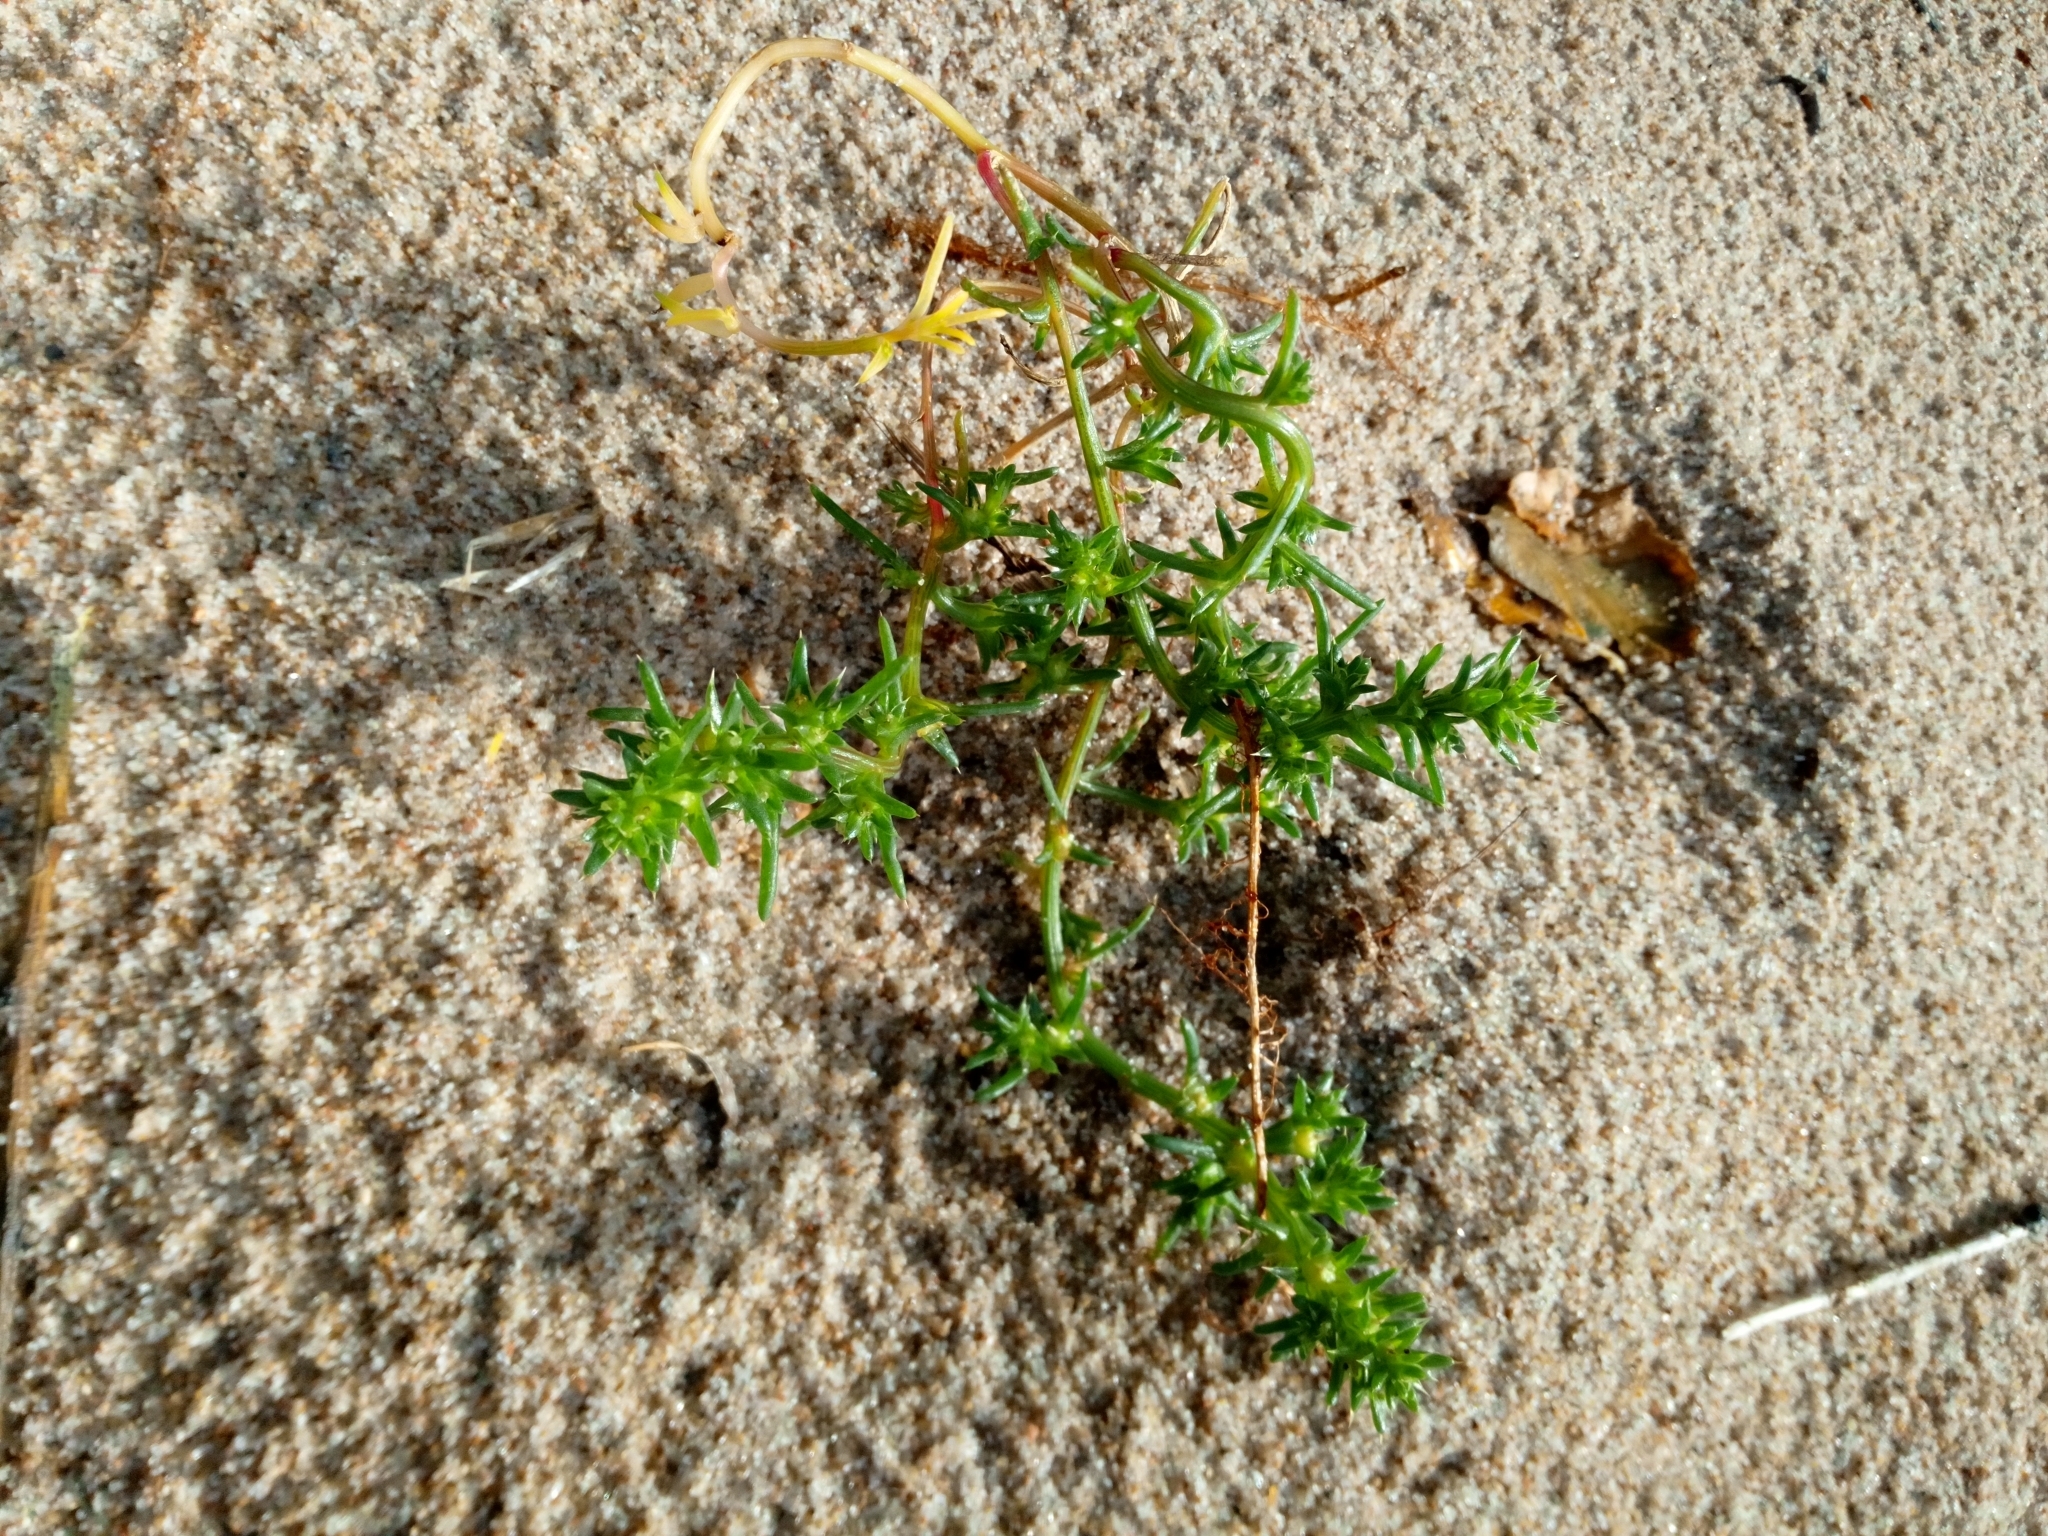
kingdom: Plantae
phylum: Tracheophyta
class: Magnoliopsida
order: Caryophyllales
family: Amaranthaceae
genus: Salsola
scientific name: Salsola kali
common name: Saltwort
